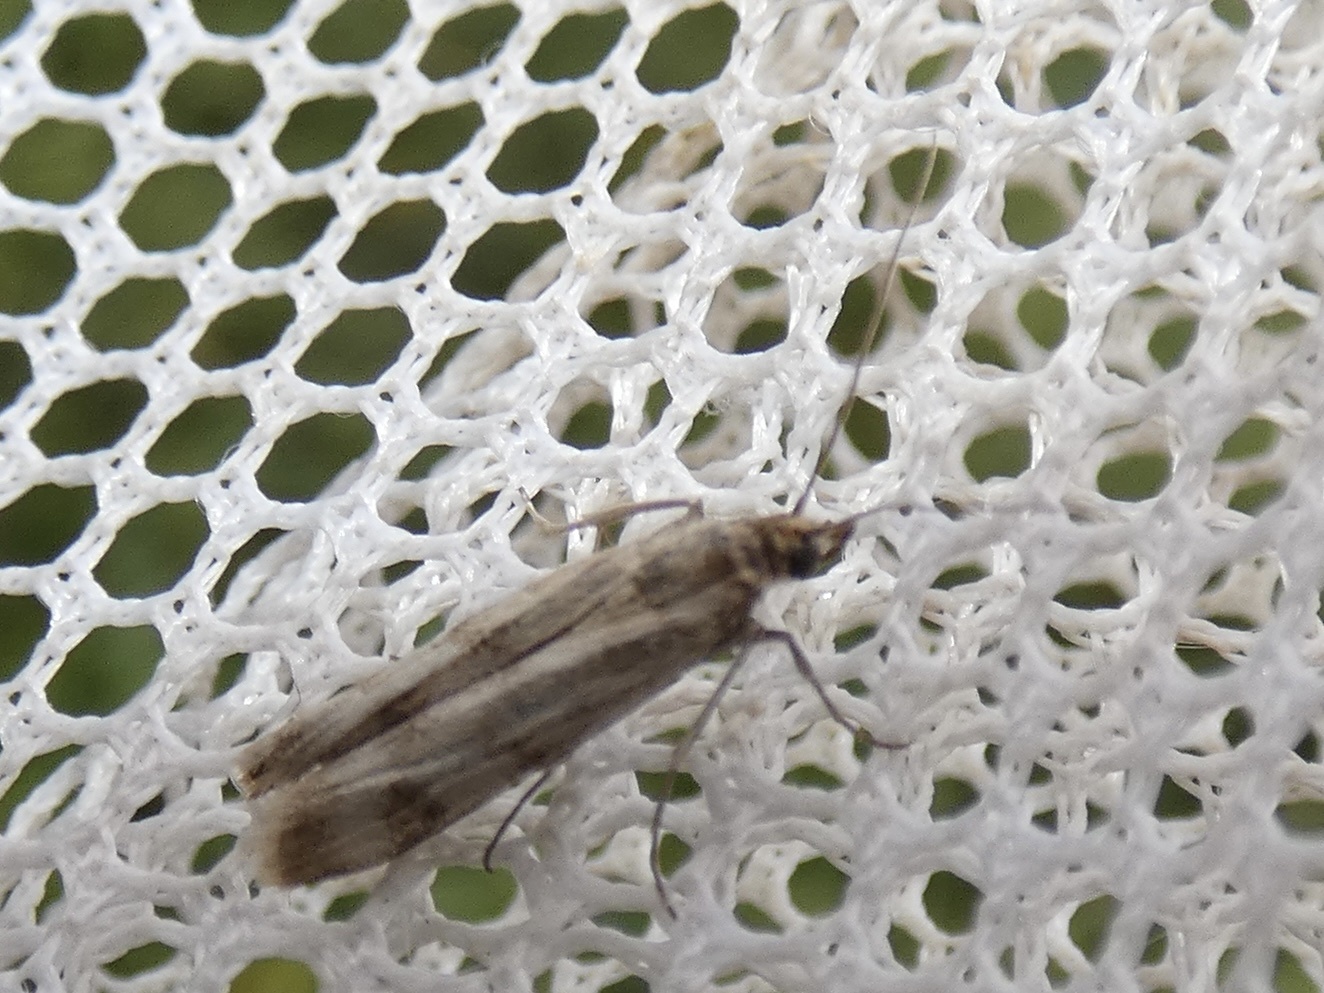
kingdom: Animalia
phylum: Arthropoda
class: Insecta
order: Lepidoptera
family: Pyralidae
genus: Homoeosoma
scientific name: Homoeosoma sinuella
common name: Twin-barred knot-horn
